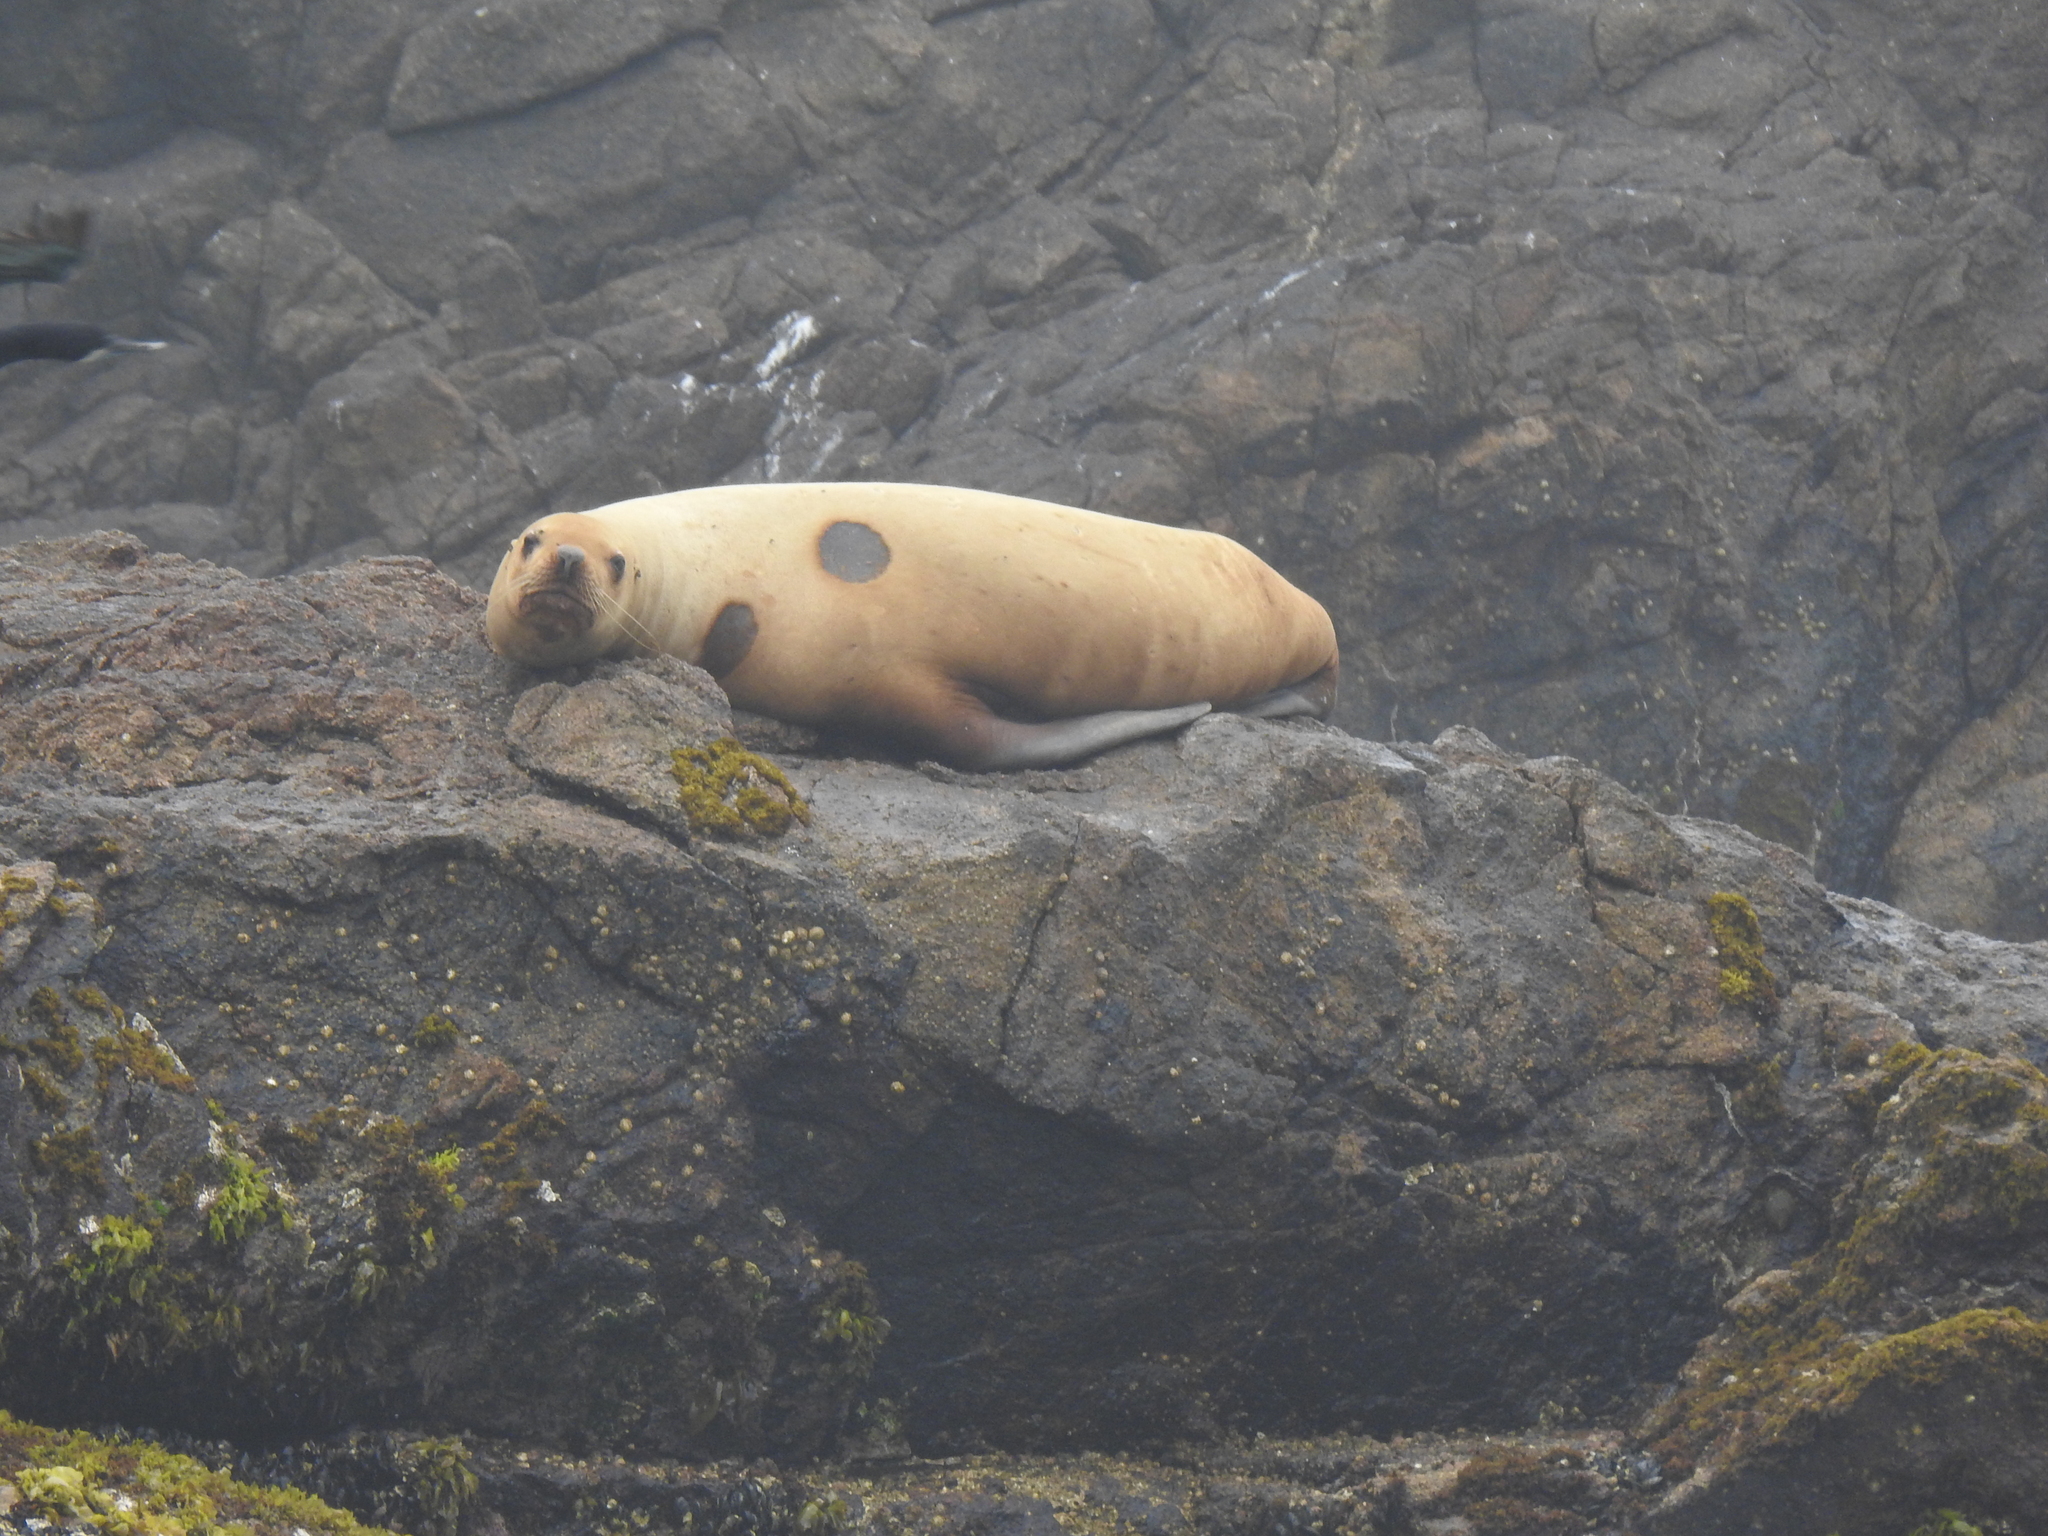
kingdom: Animalia
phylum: Chordata
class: Mammalia
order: Carnivora
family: Otariidae
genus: Zalophus
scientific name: Zalophus californianus
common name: California sea lion
